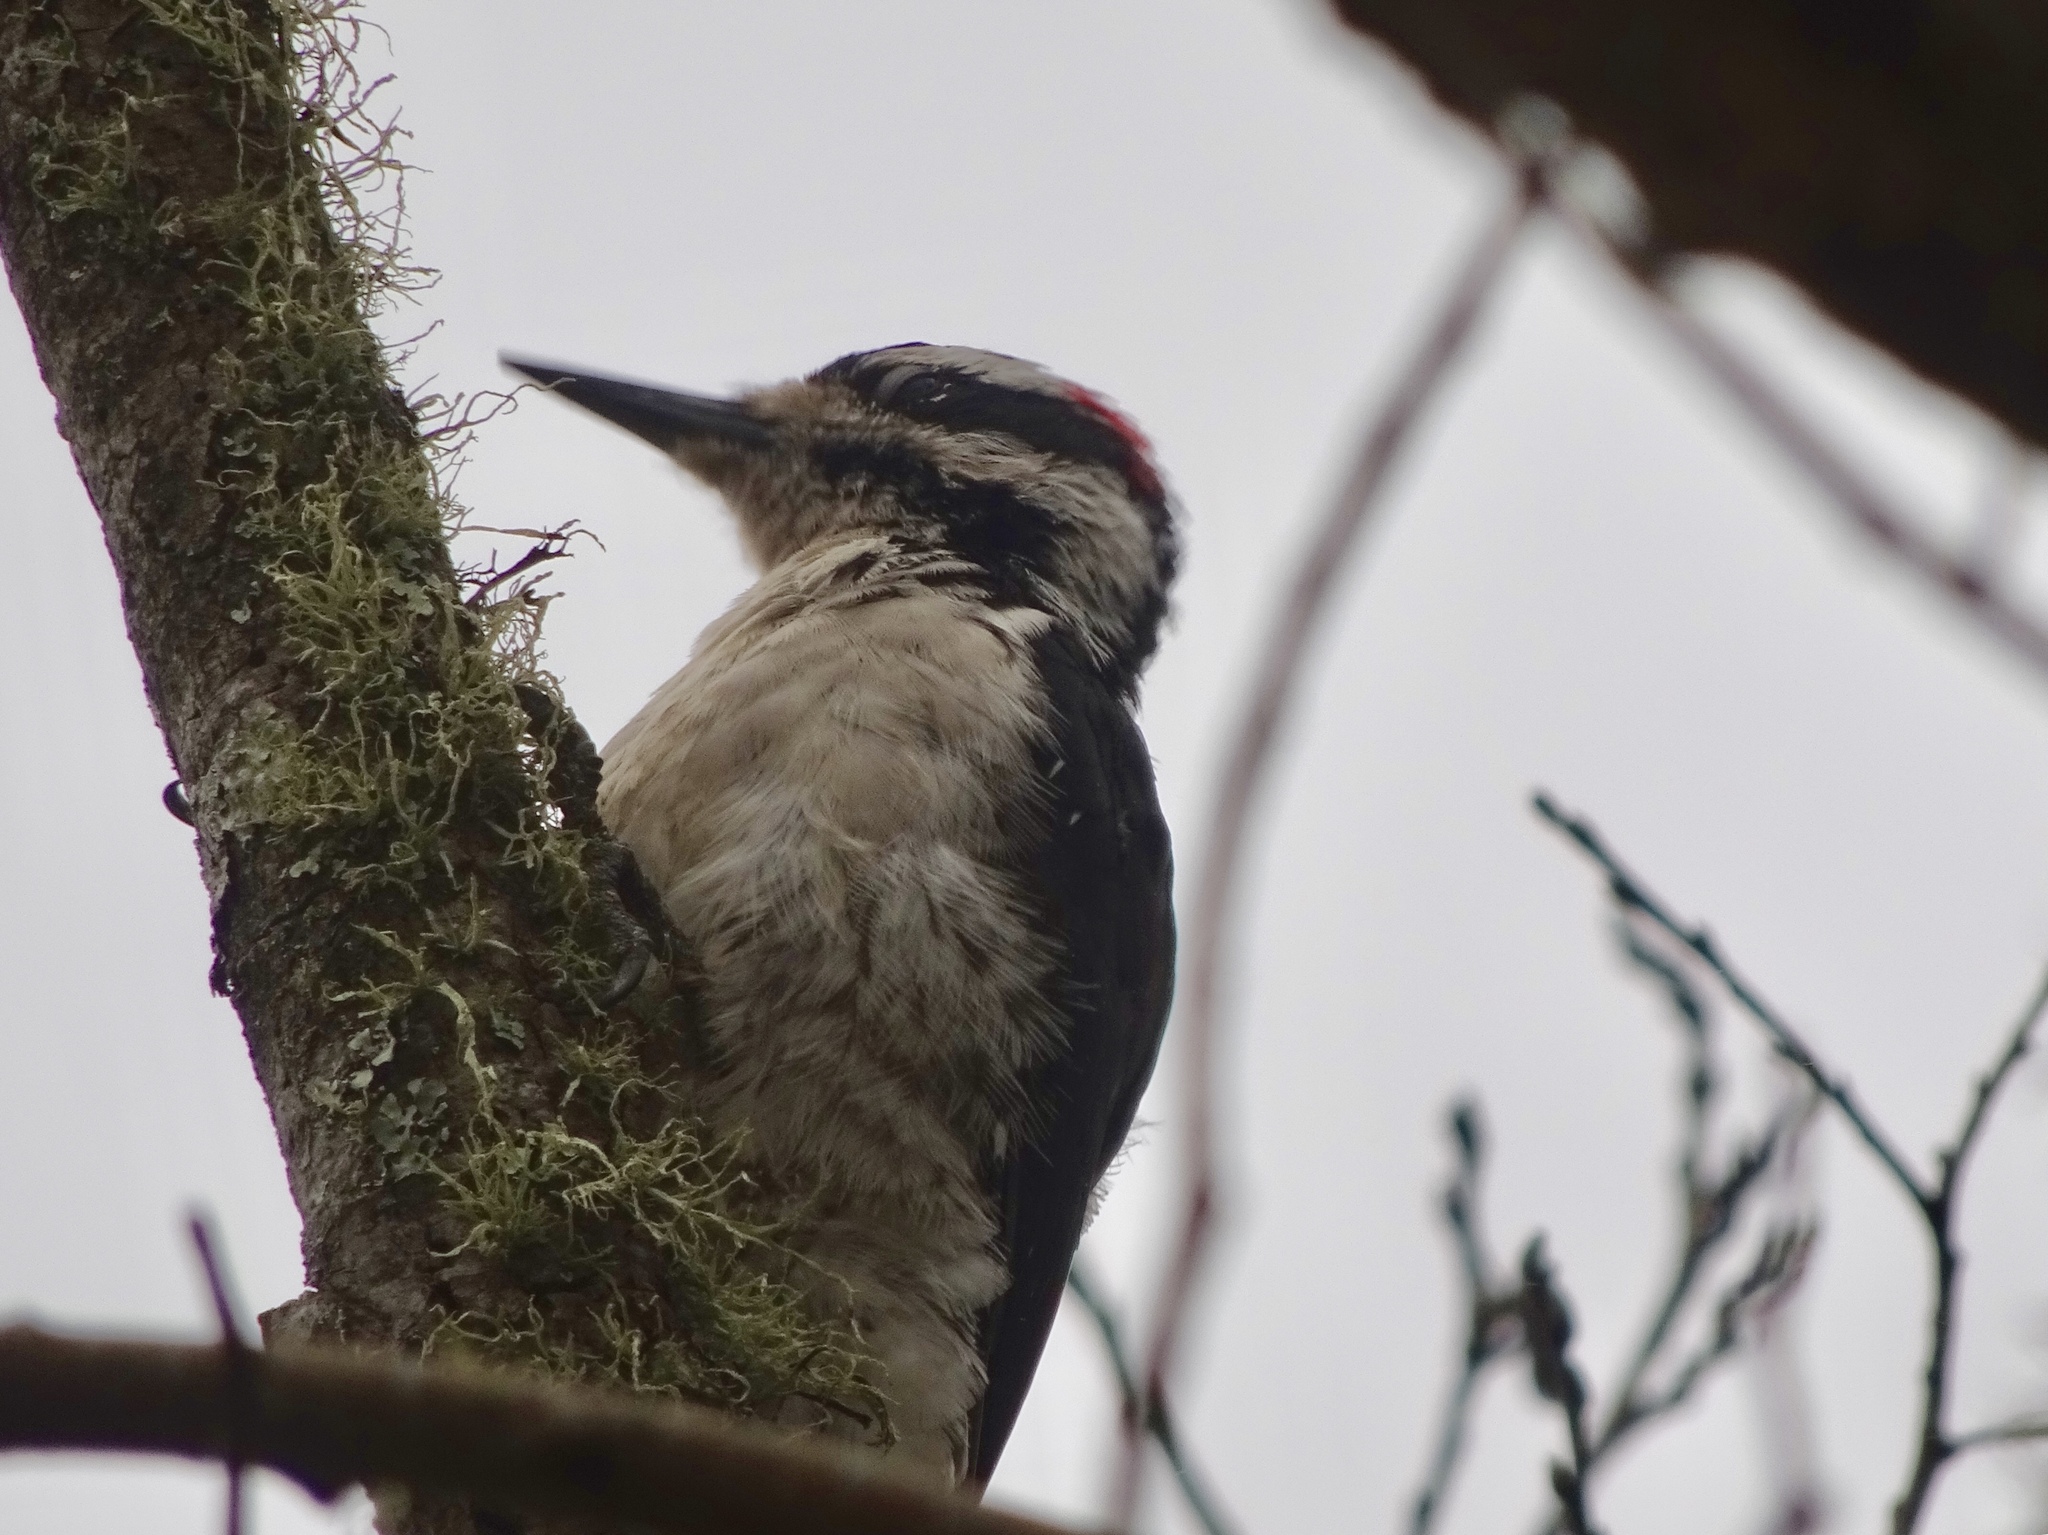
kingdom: Animalia
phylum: Chordata
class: Aves
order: Piciformes
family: Picidae
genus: Leuconotopicus
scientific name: Leuconotopicus villosus
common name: Hairy woodpecker
